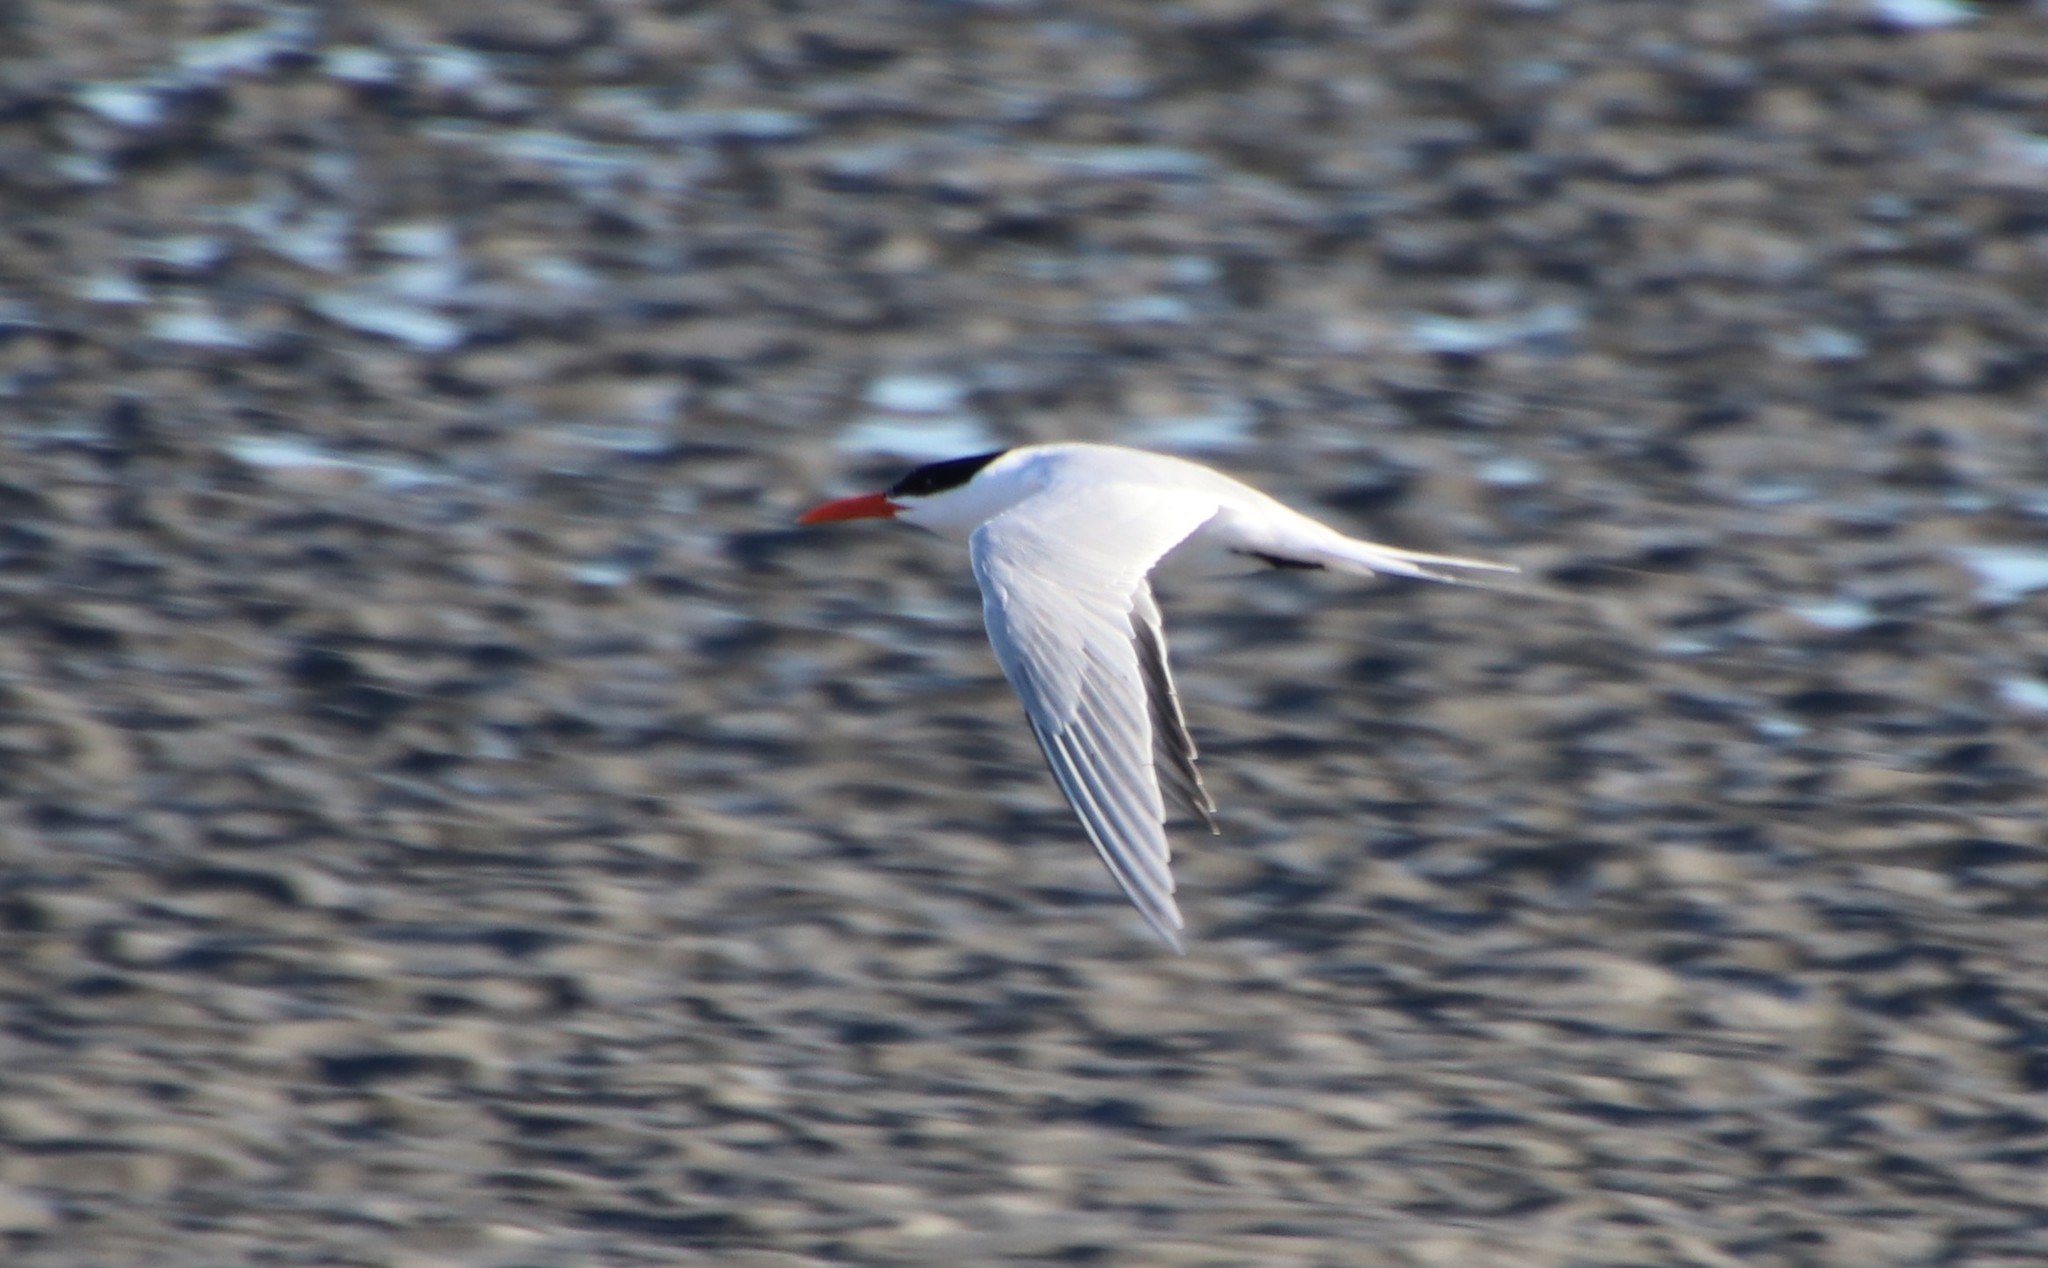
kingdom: Animalia
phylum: Chordata
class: Aves
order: Charadriiformes
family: Laridae
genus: Thalasseus
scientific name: Thalasseus maximus
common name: Royal tern
